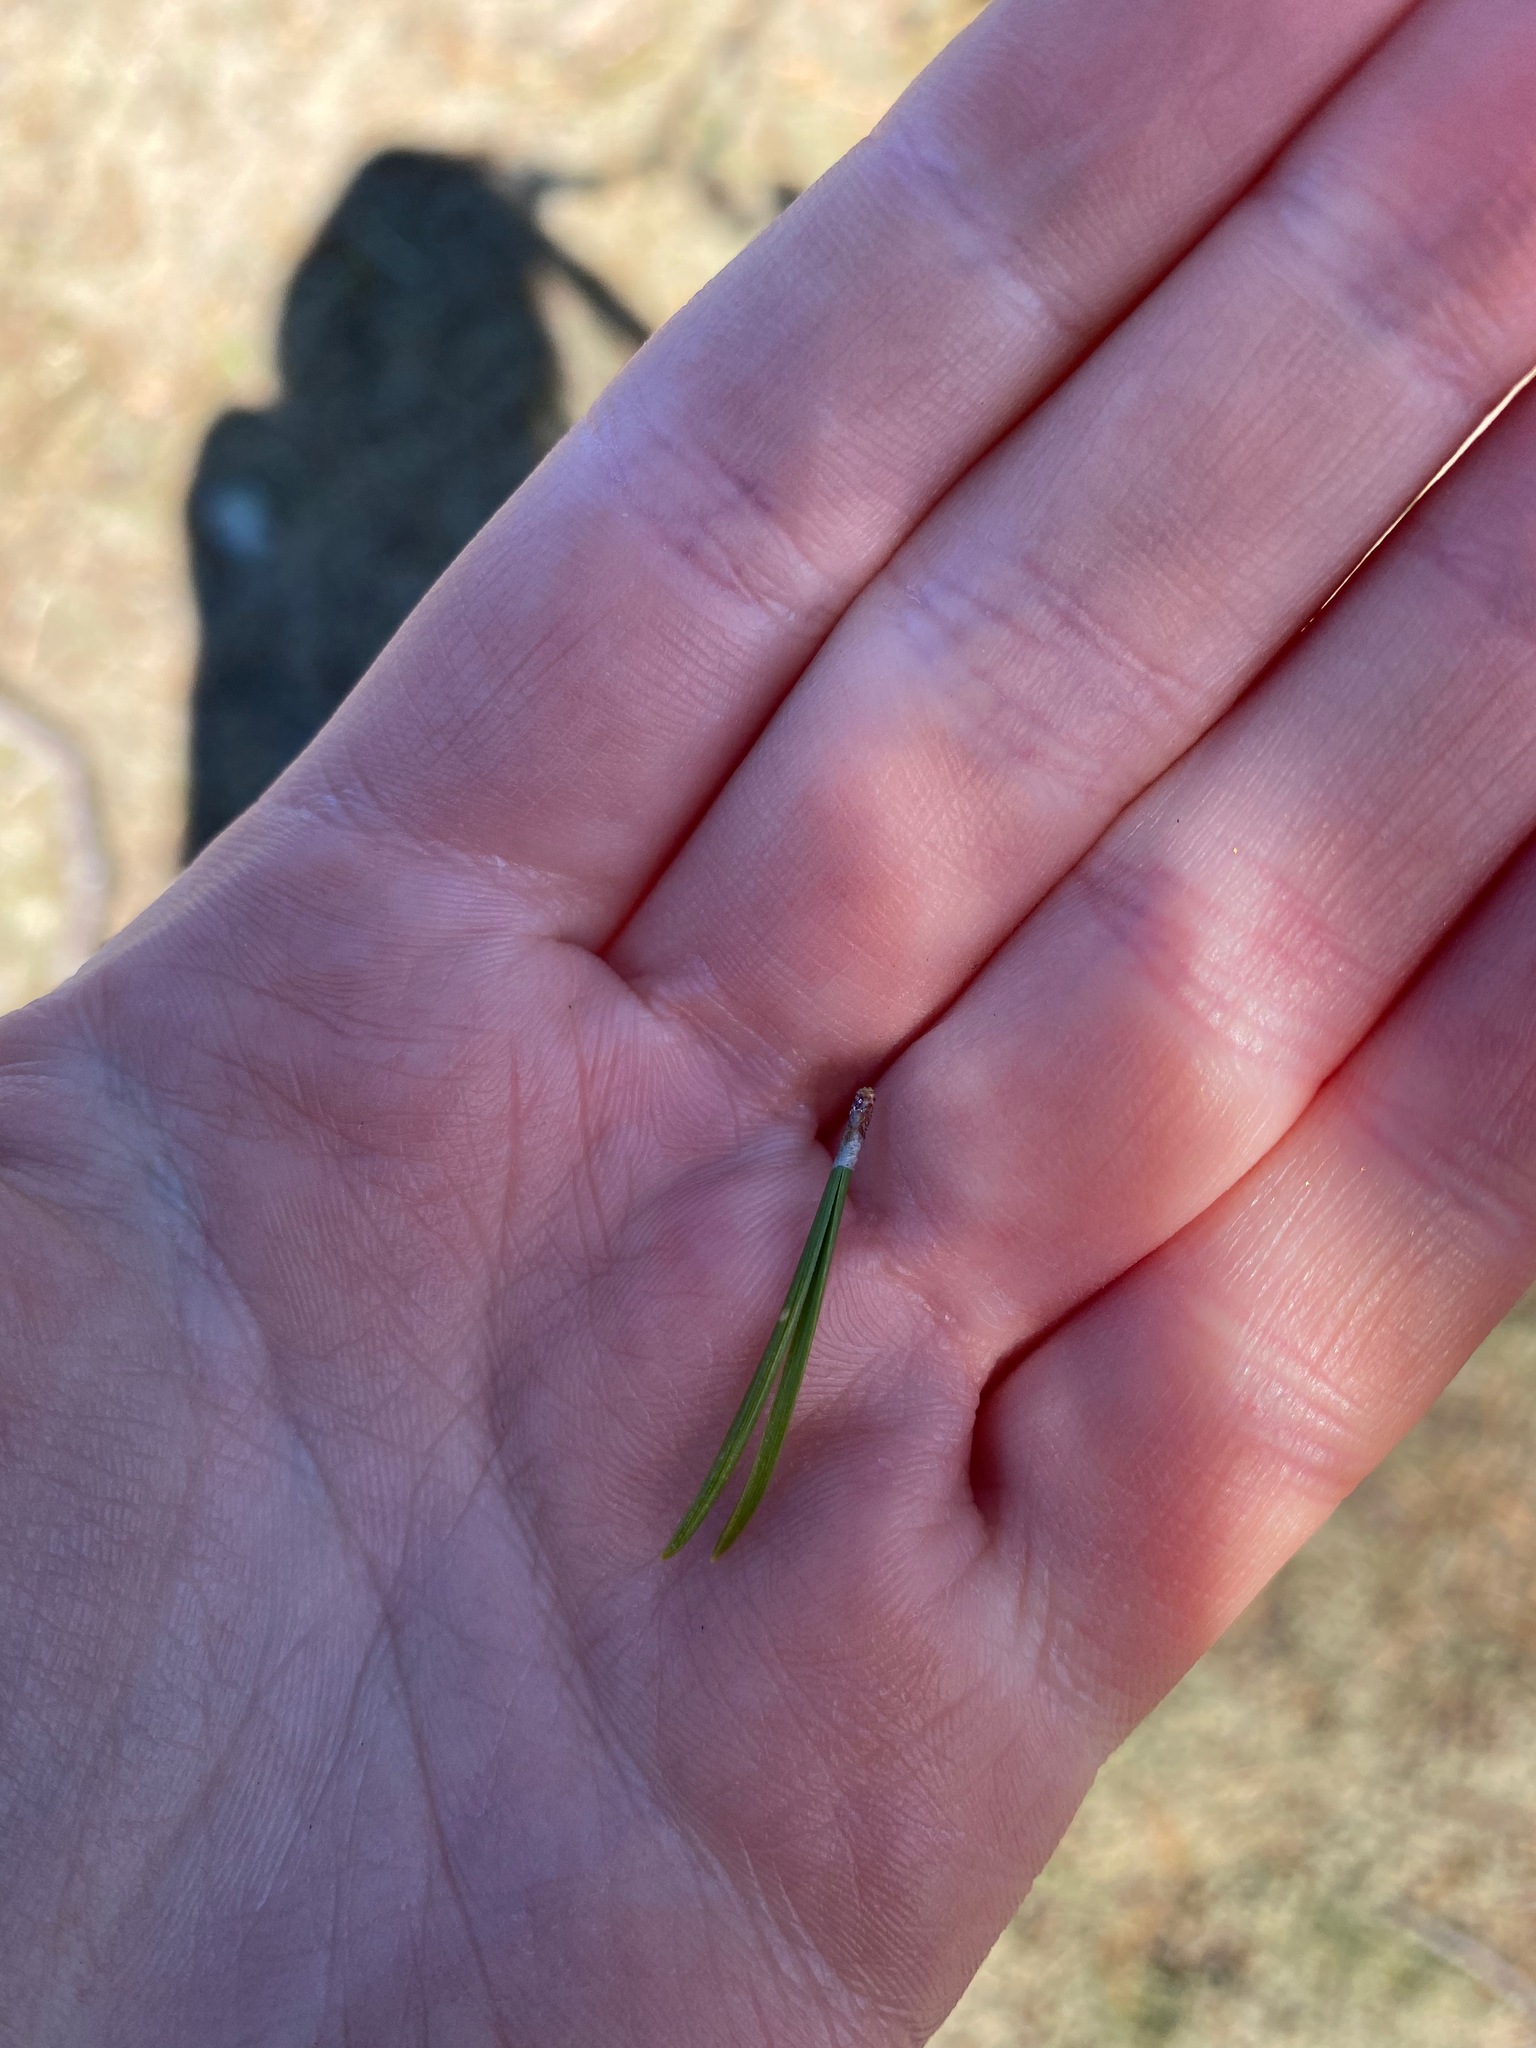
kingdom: Plantae
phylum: Tracheophyta
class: Pinopsida
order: Pinales
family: Pinaceae
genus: Pinus
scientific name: Pinus contorta
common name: Lodgepole pine
